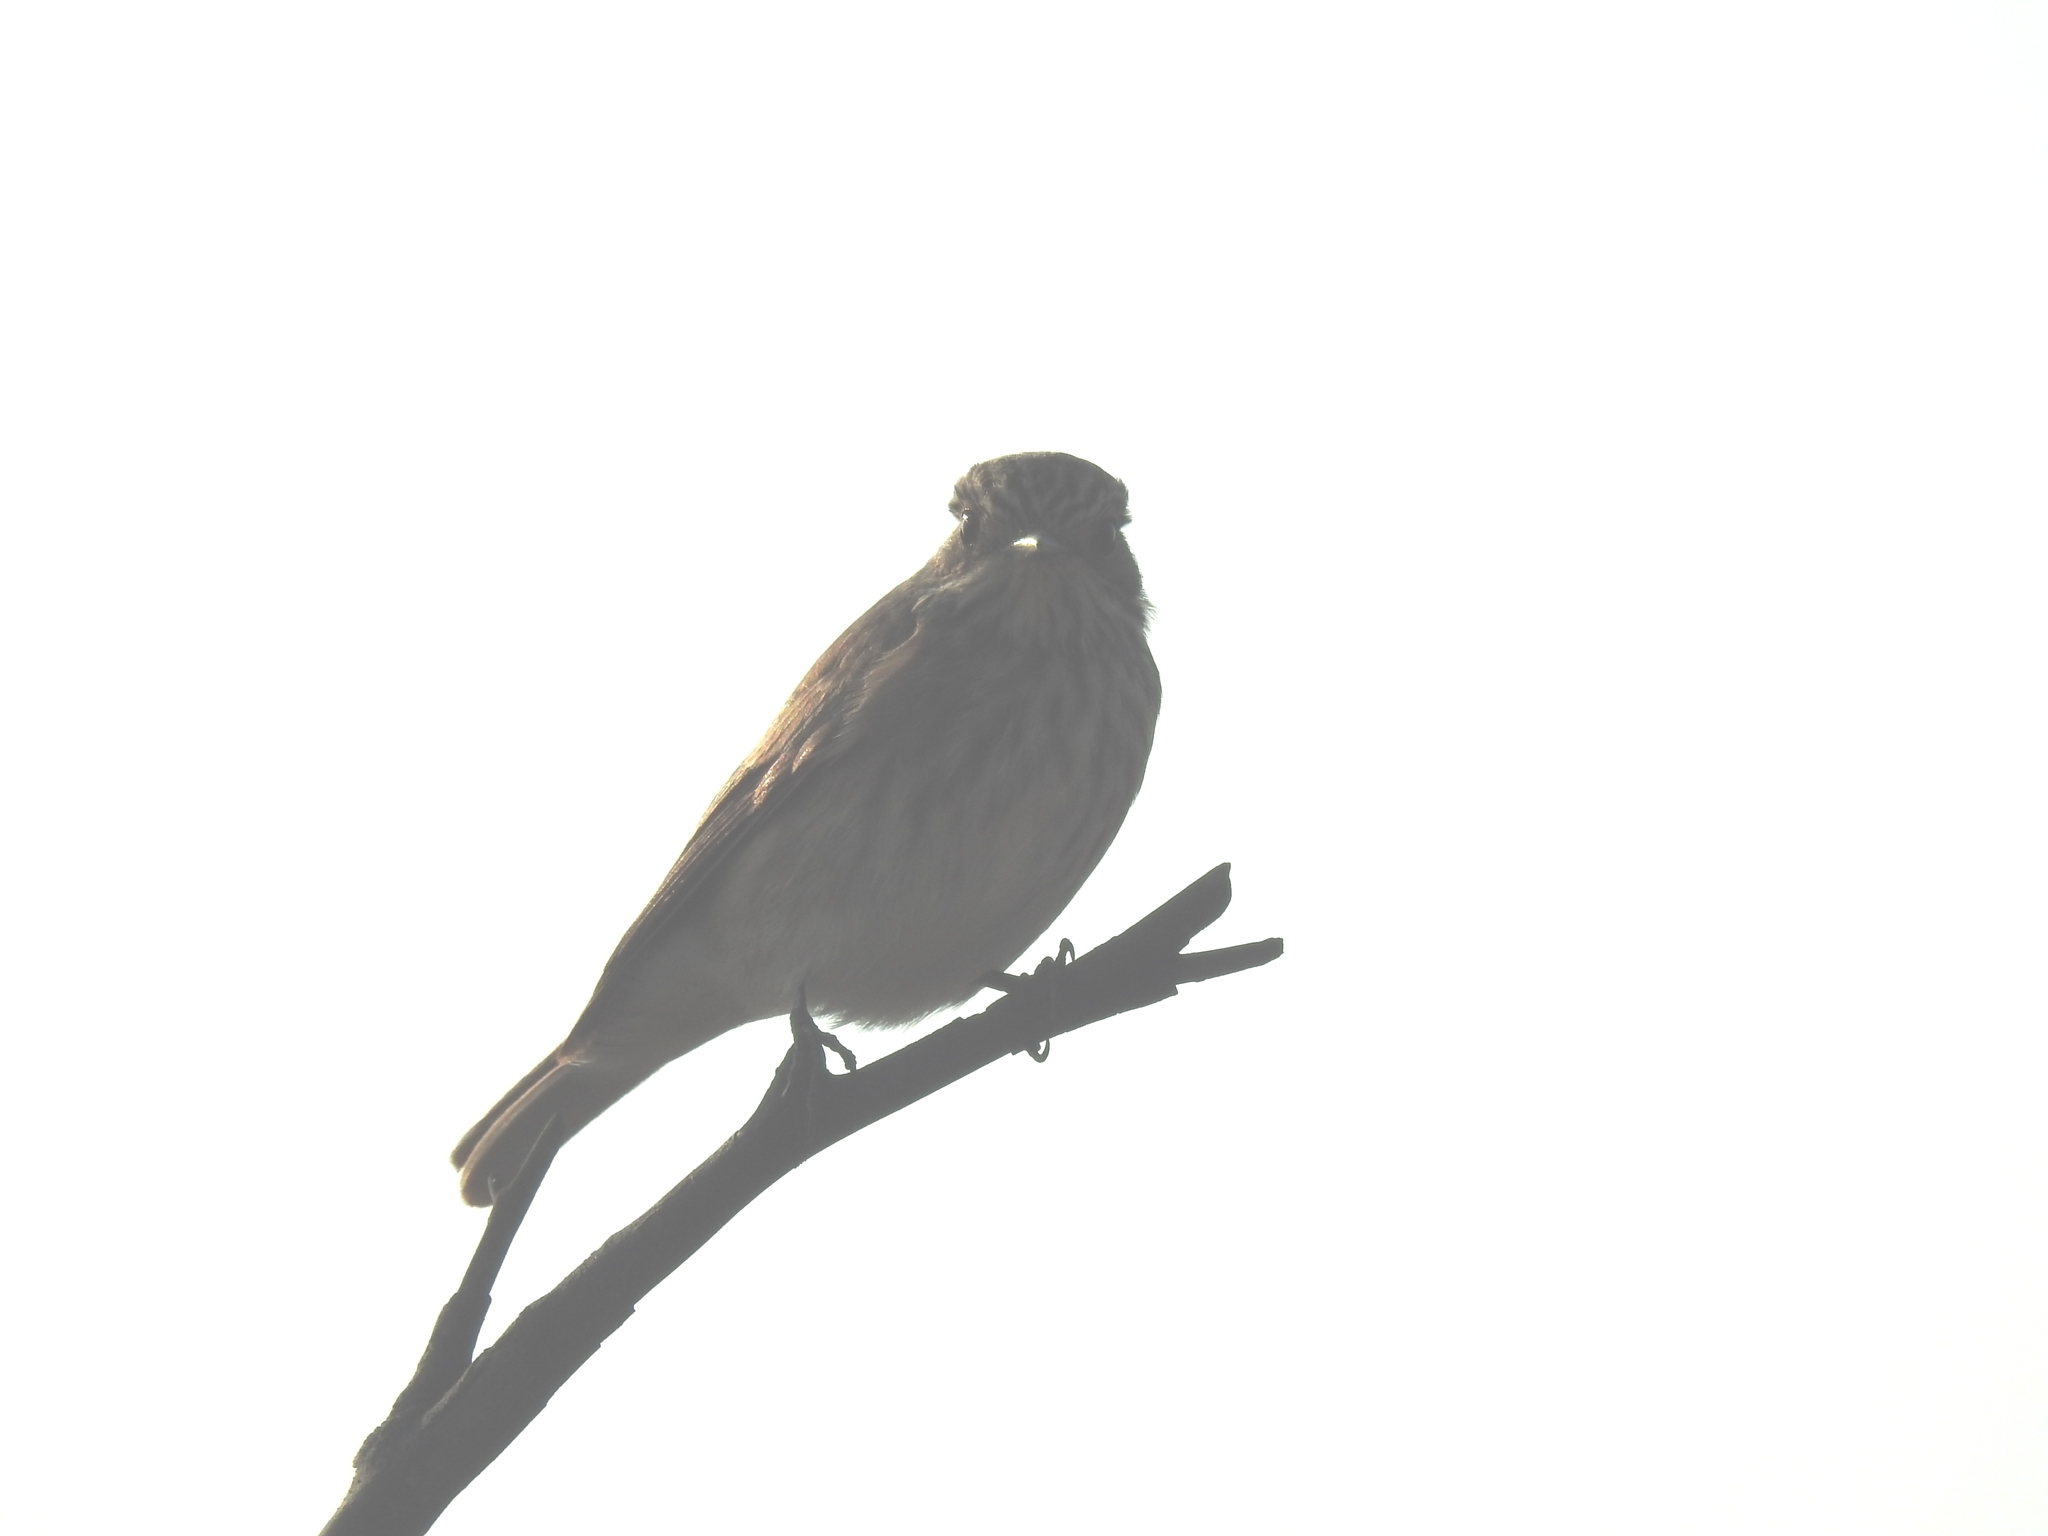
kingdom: Animalia
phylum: Chordata
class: Aves
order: Passeriformes
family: Muscicapidae
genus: Muscicapa
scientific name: Muscicapa striata
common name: Spotted flycatcher
